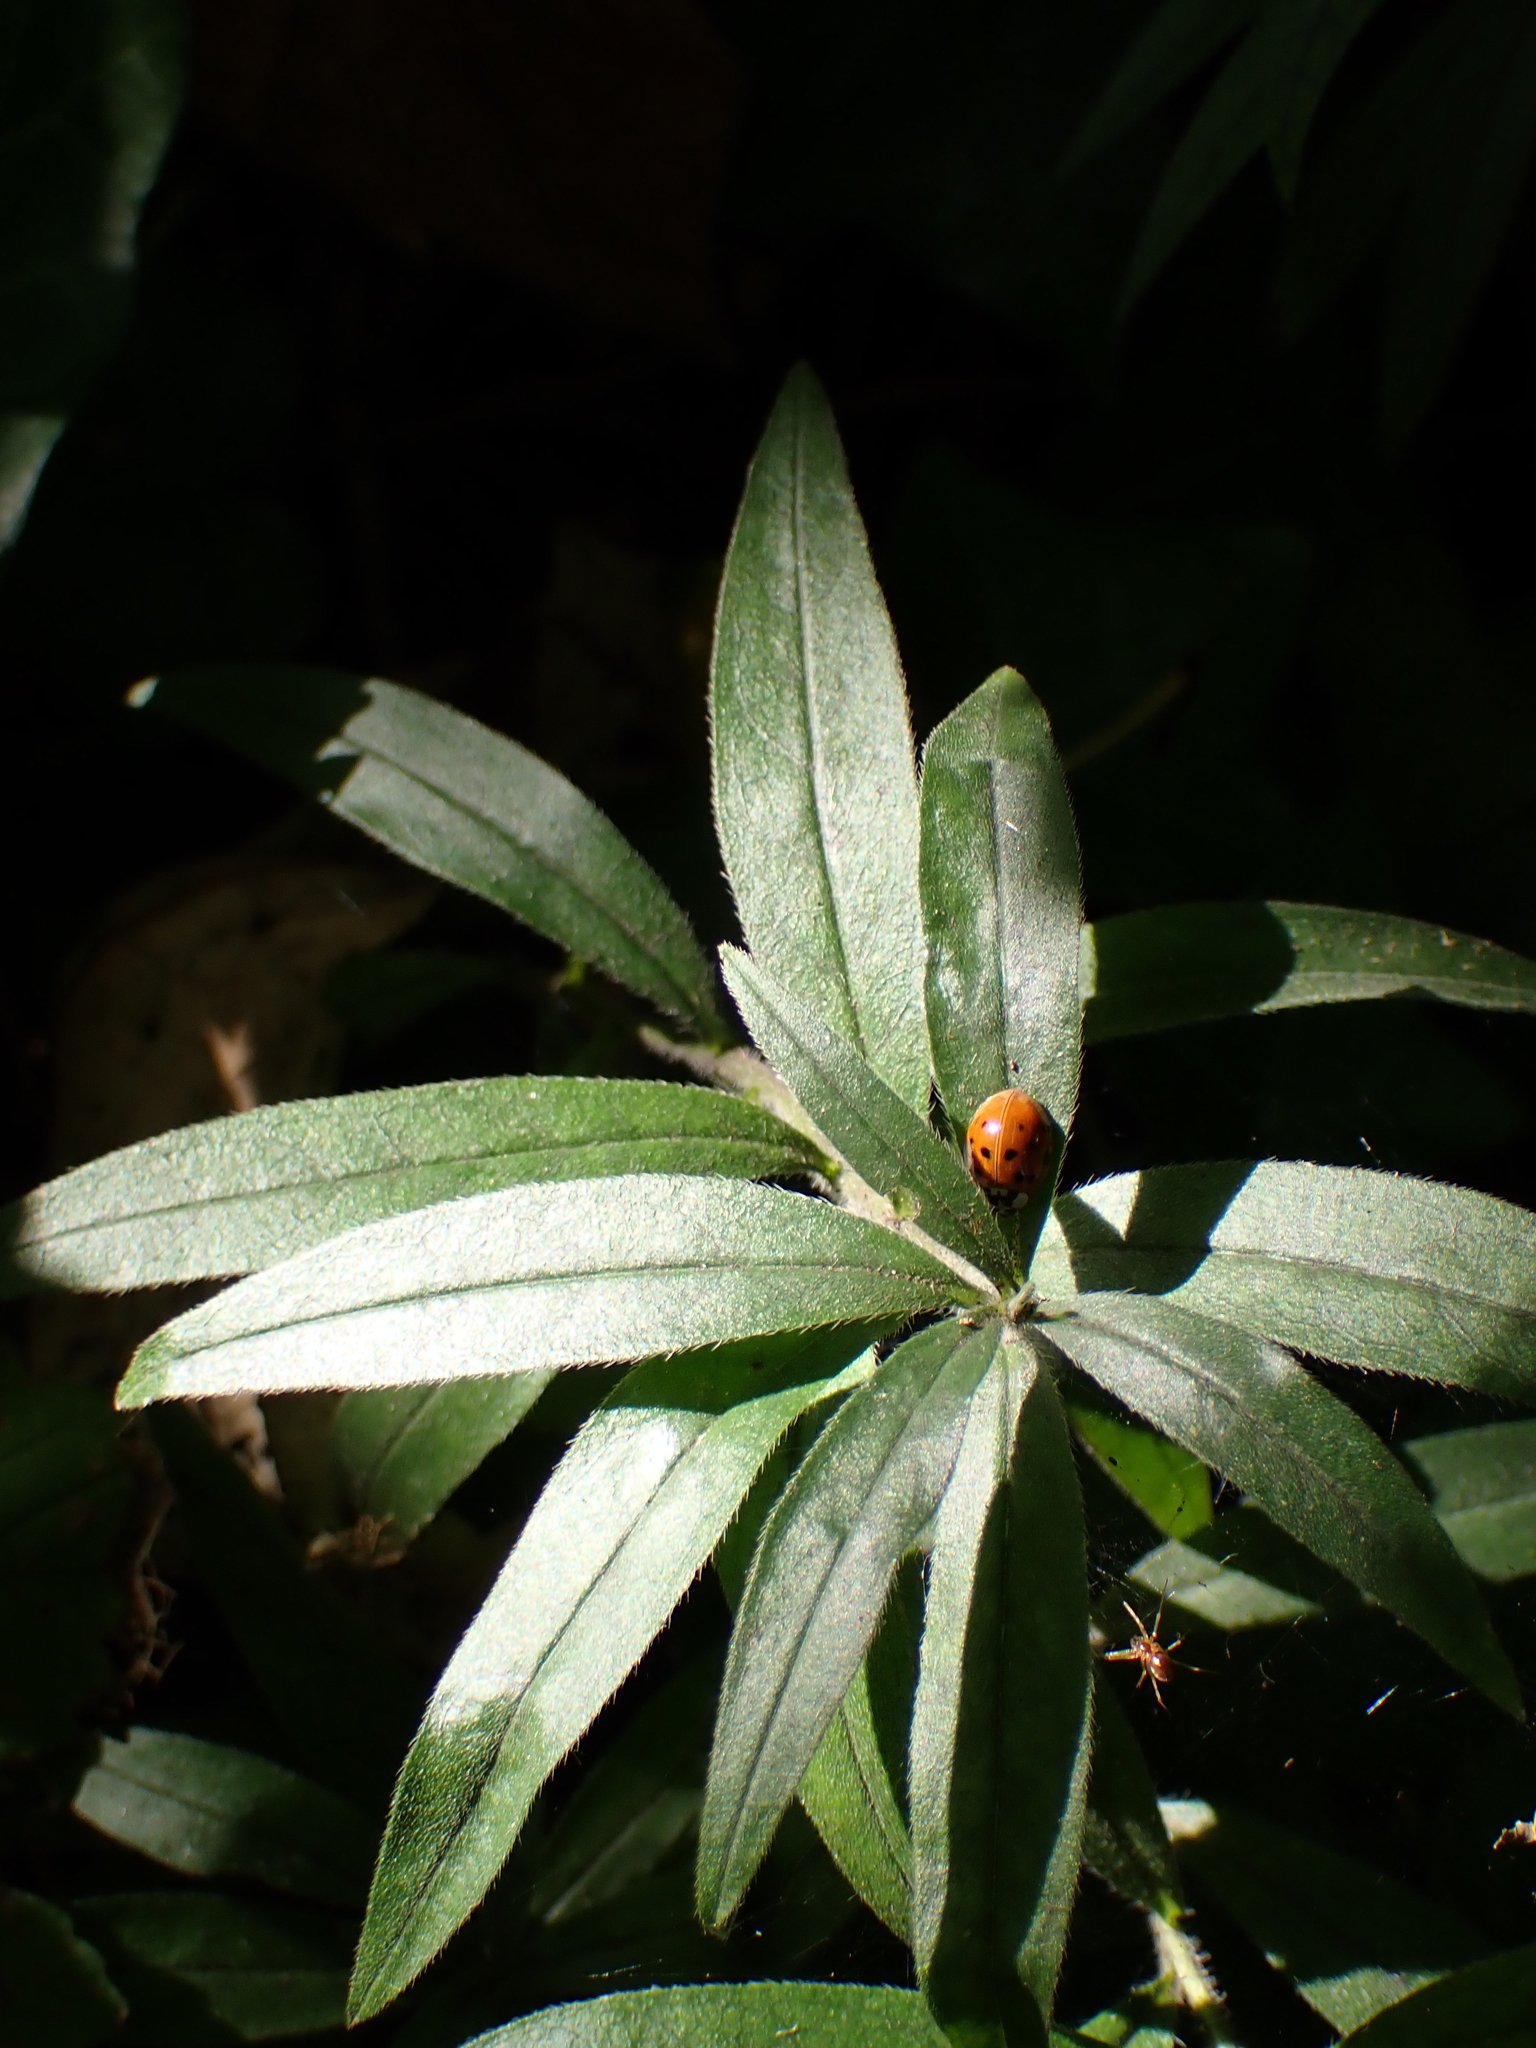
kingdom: Plantae
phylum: Tracheophyta
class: Magnoliopsida
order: Boraginales
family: Boraginaceae
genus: Aegonychon
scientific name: Aegonychon purpurocaeruleum
